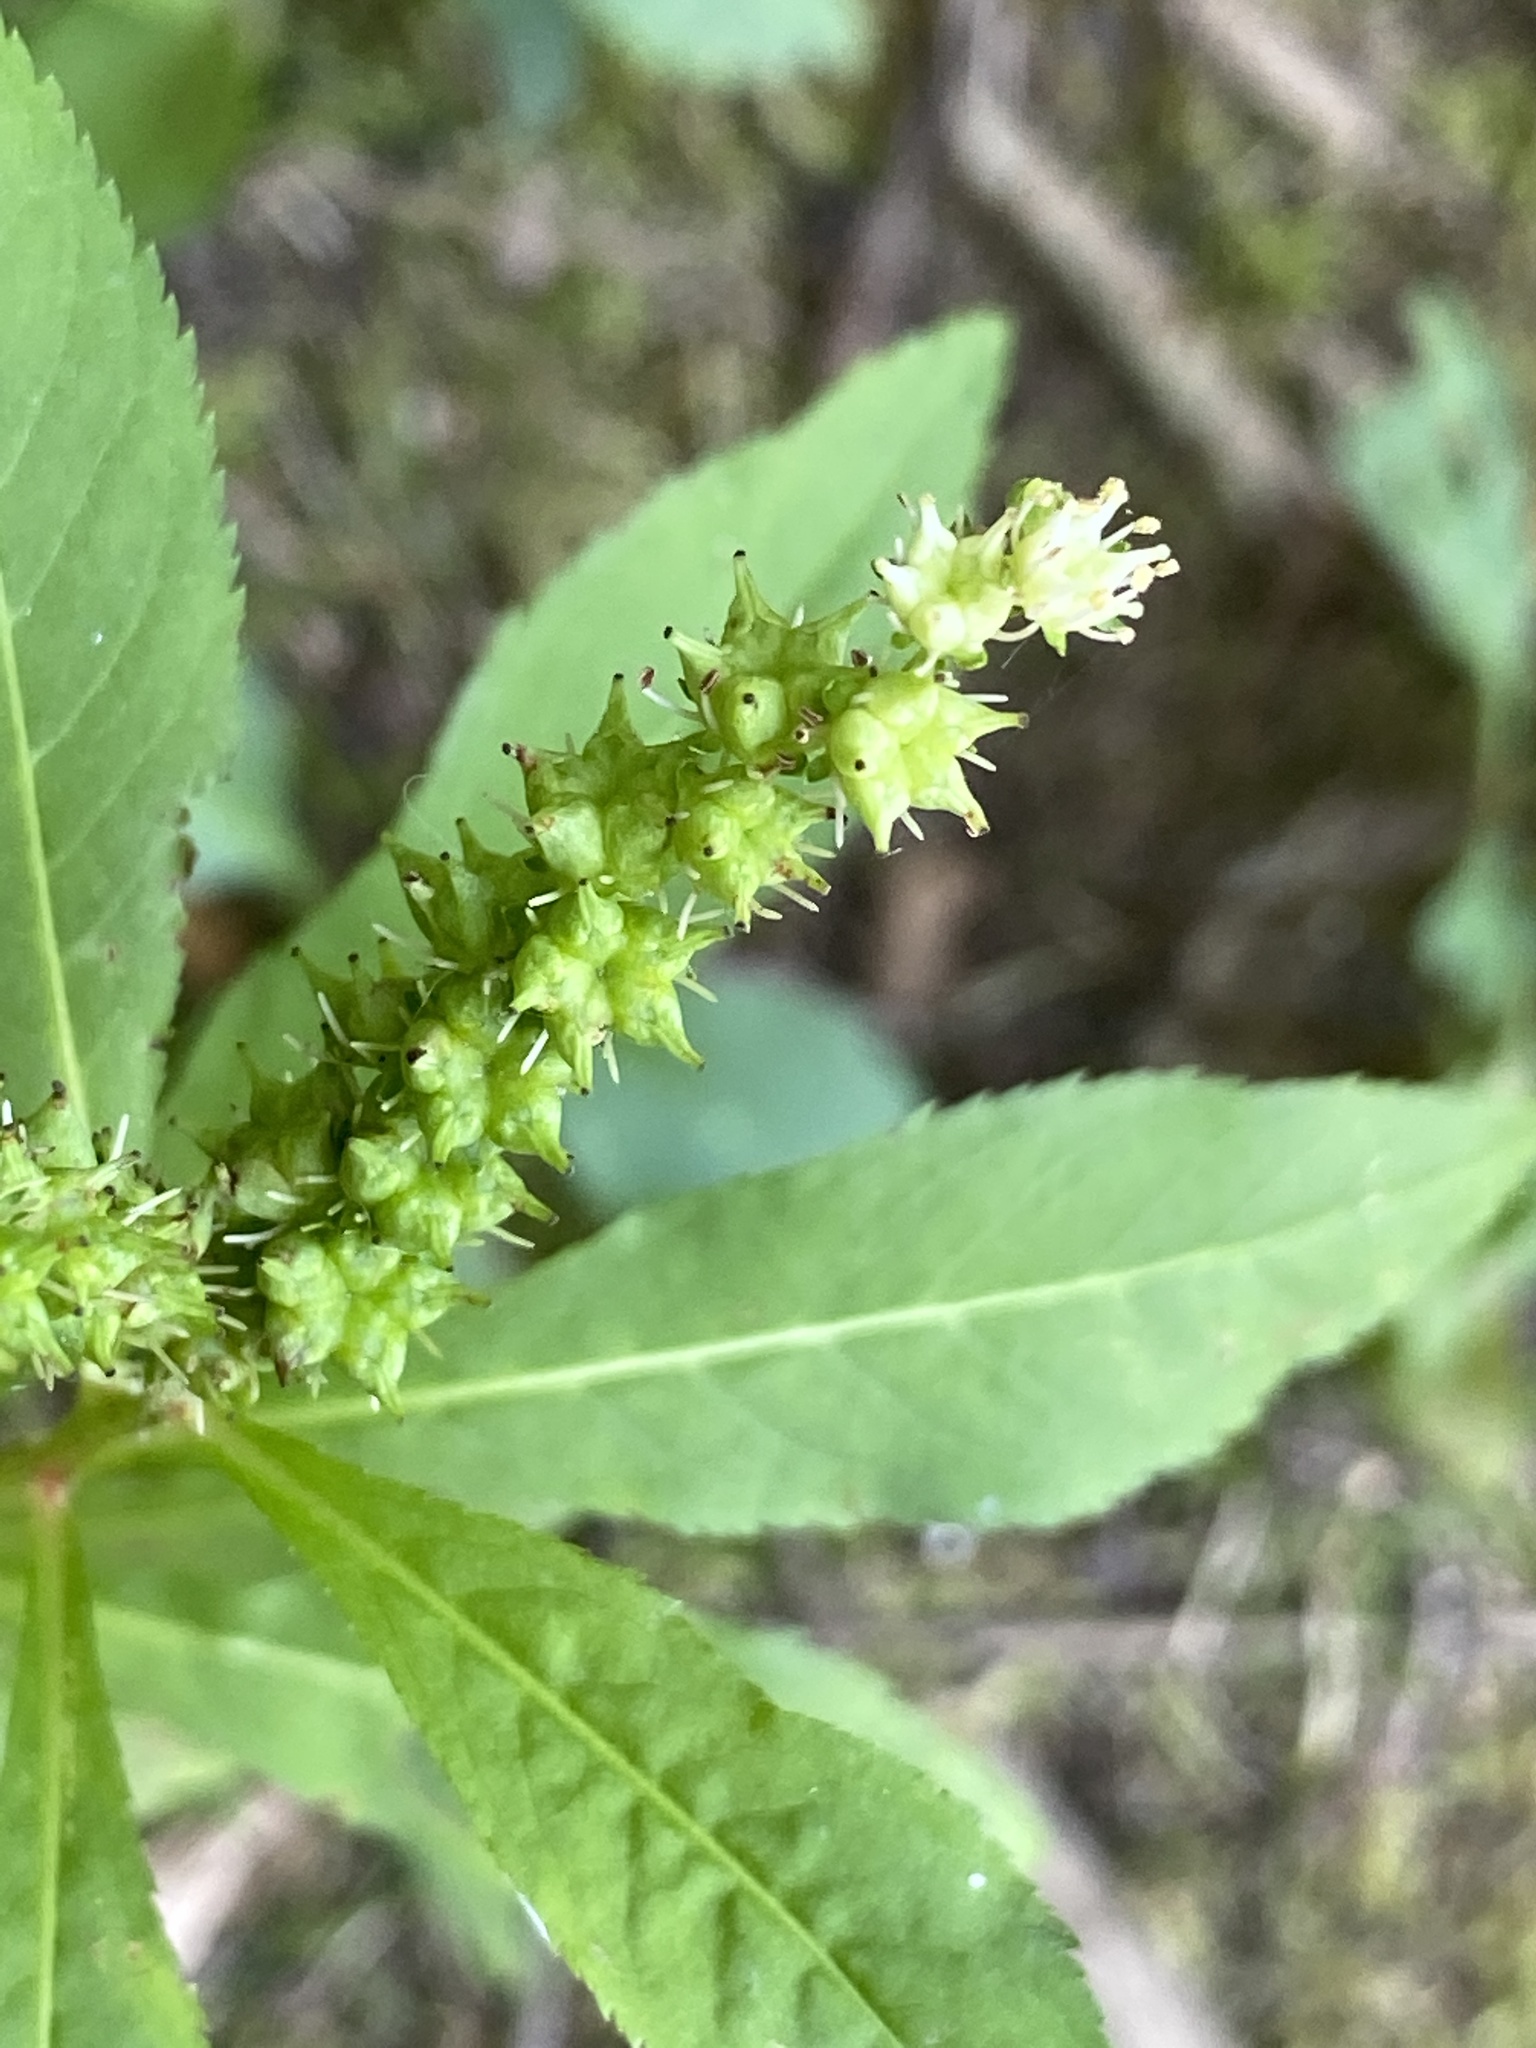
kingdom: Plantae
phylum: Tracheophyta
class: Magnoliopsida
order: Saxifragales
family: Penthoraceae
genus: Penthorum
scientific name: Penthorum sedoides
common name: Ditch stonecrop
